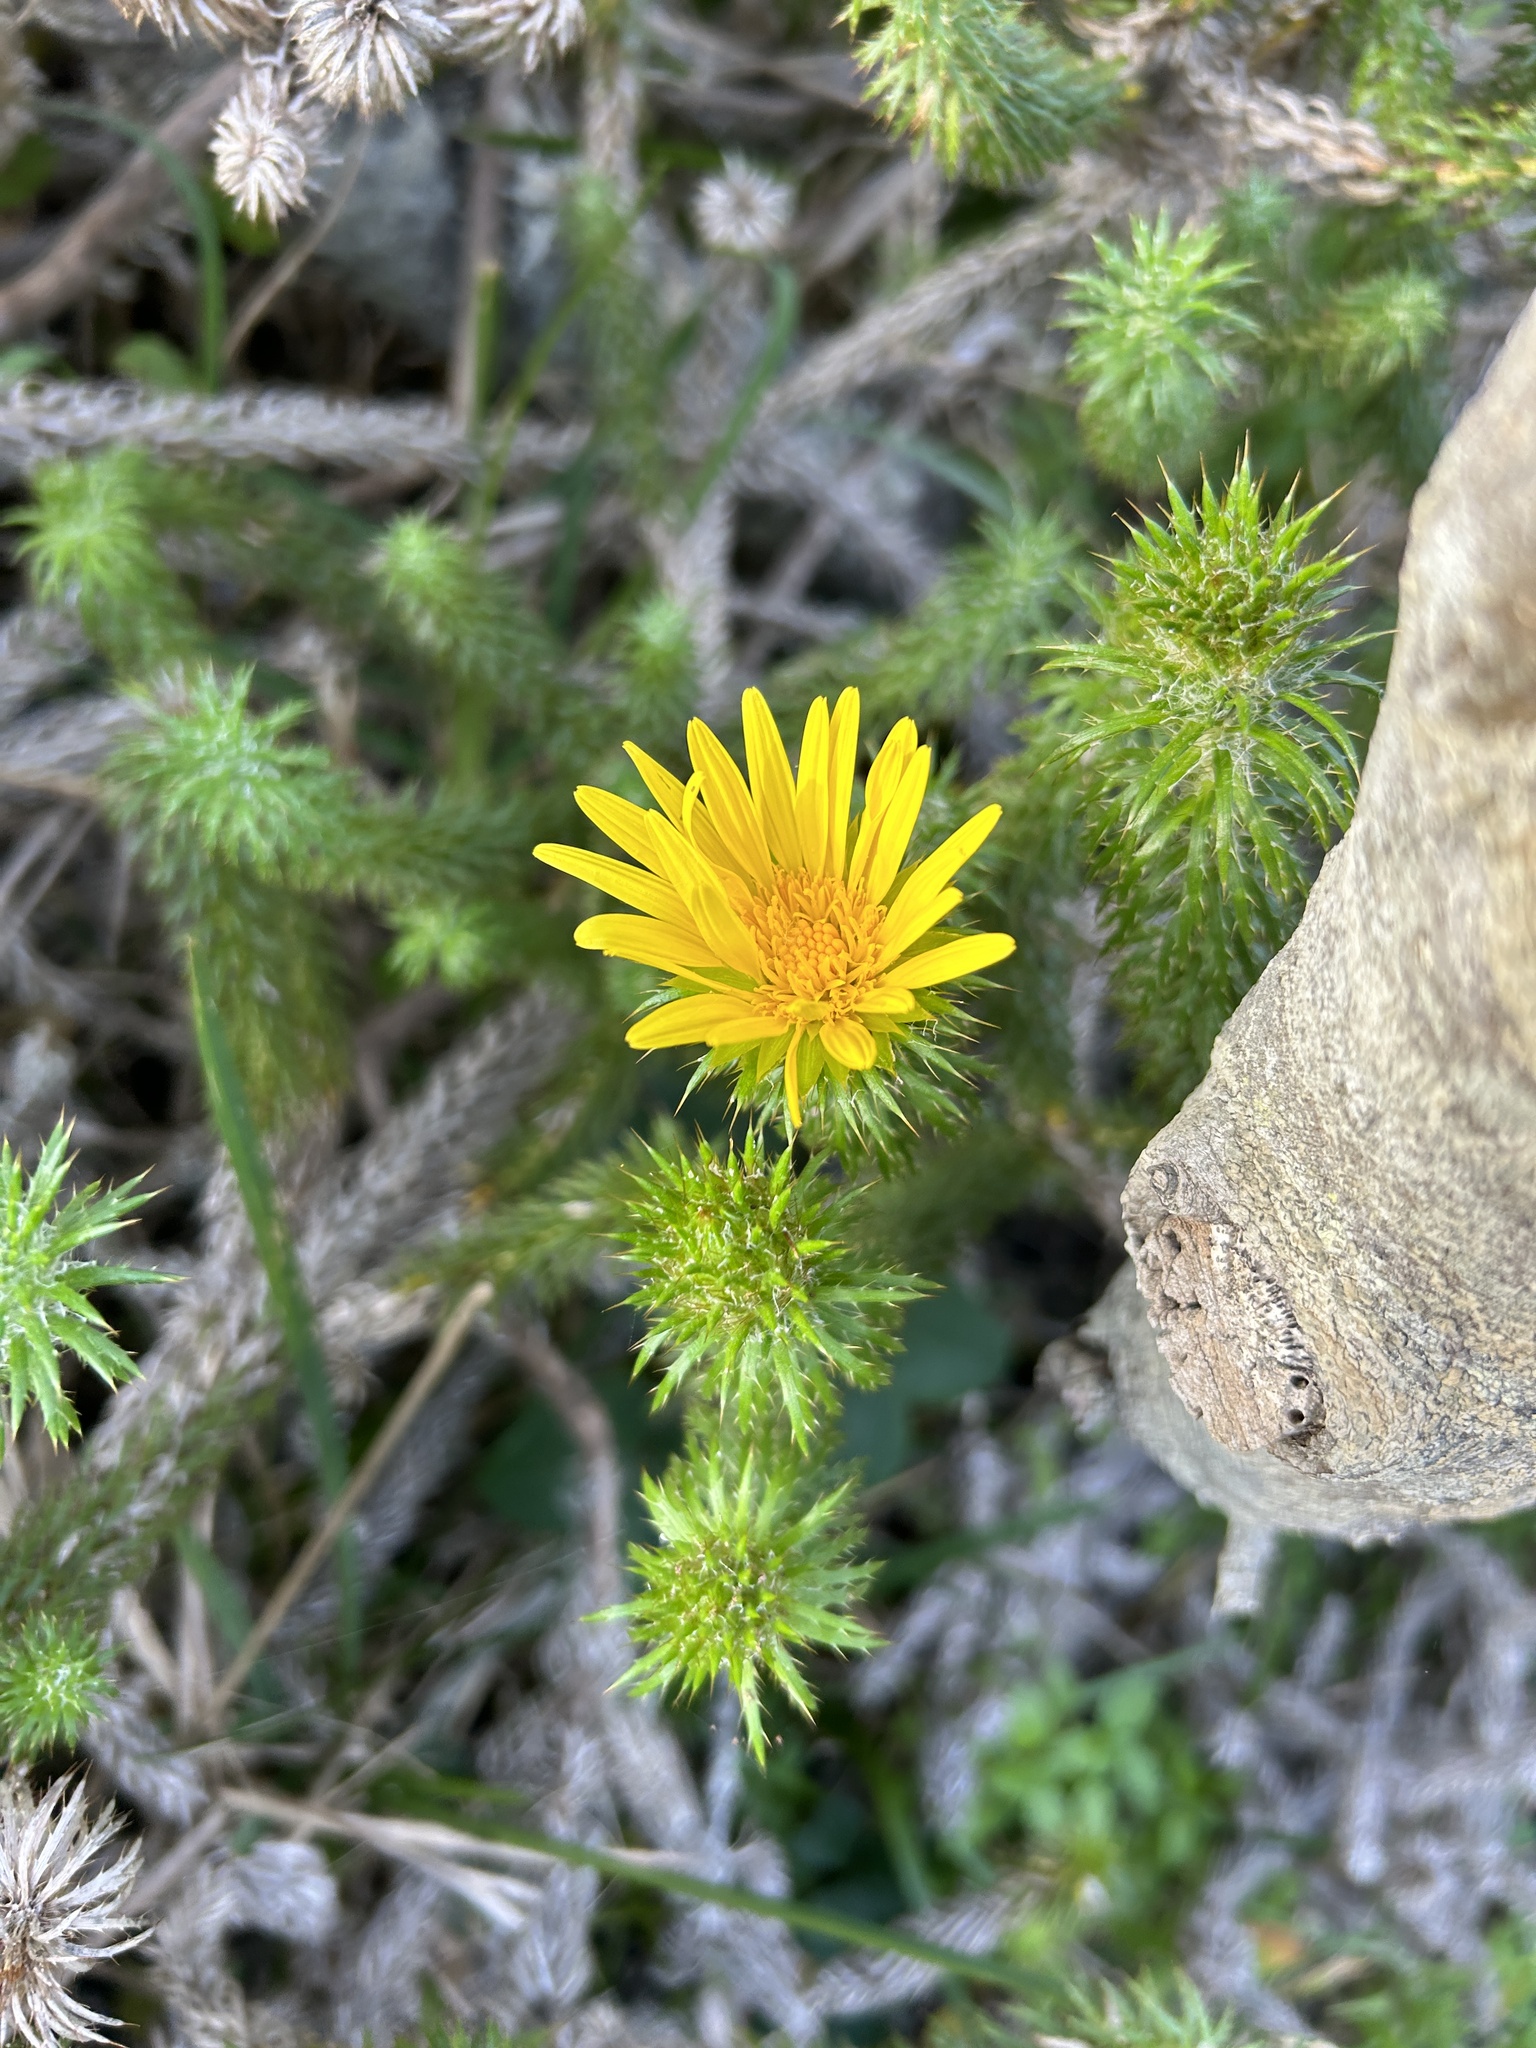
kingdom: Plantae
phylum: Tracheophyta
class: Magnoliopsida
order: Asterales
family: Asteraceae
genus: Cullumia
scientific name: Cullumia squarrosa
